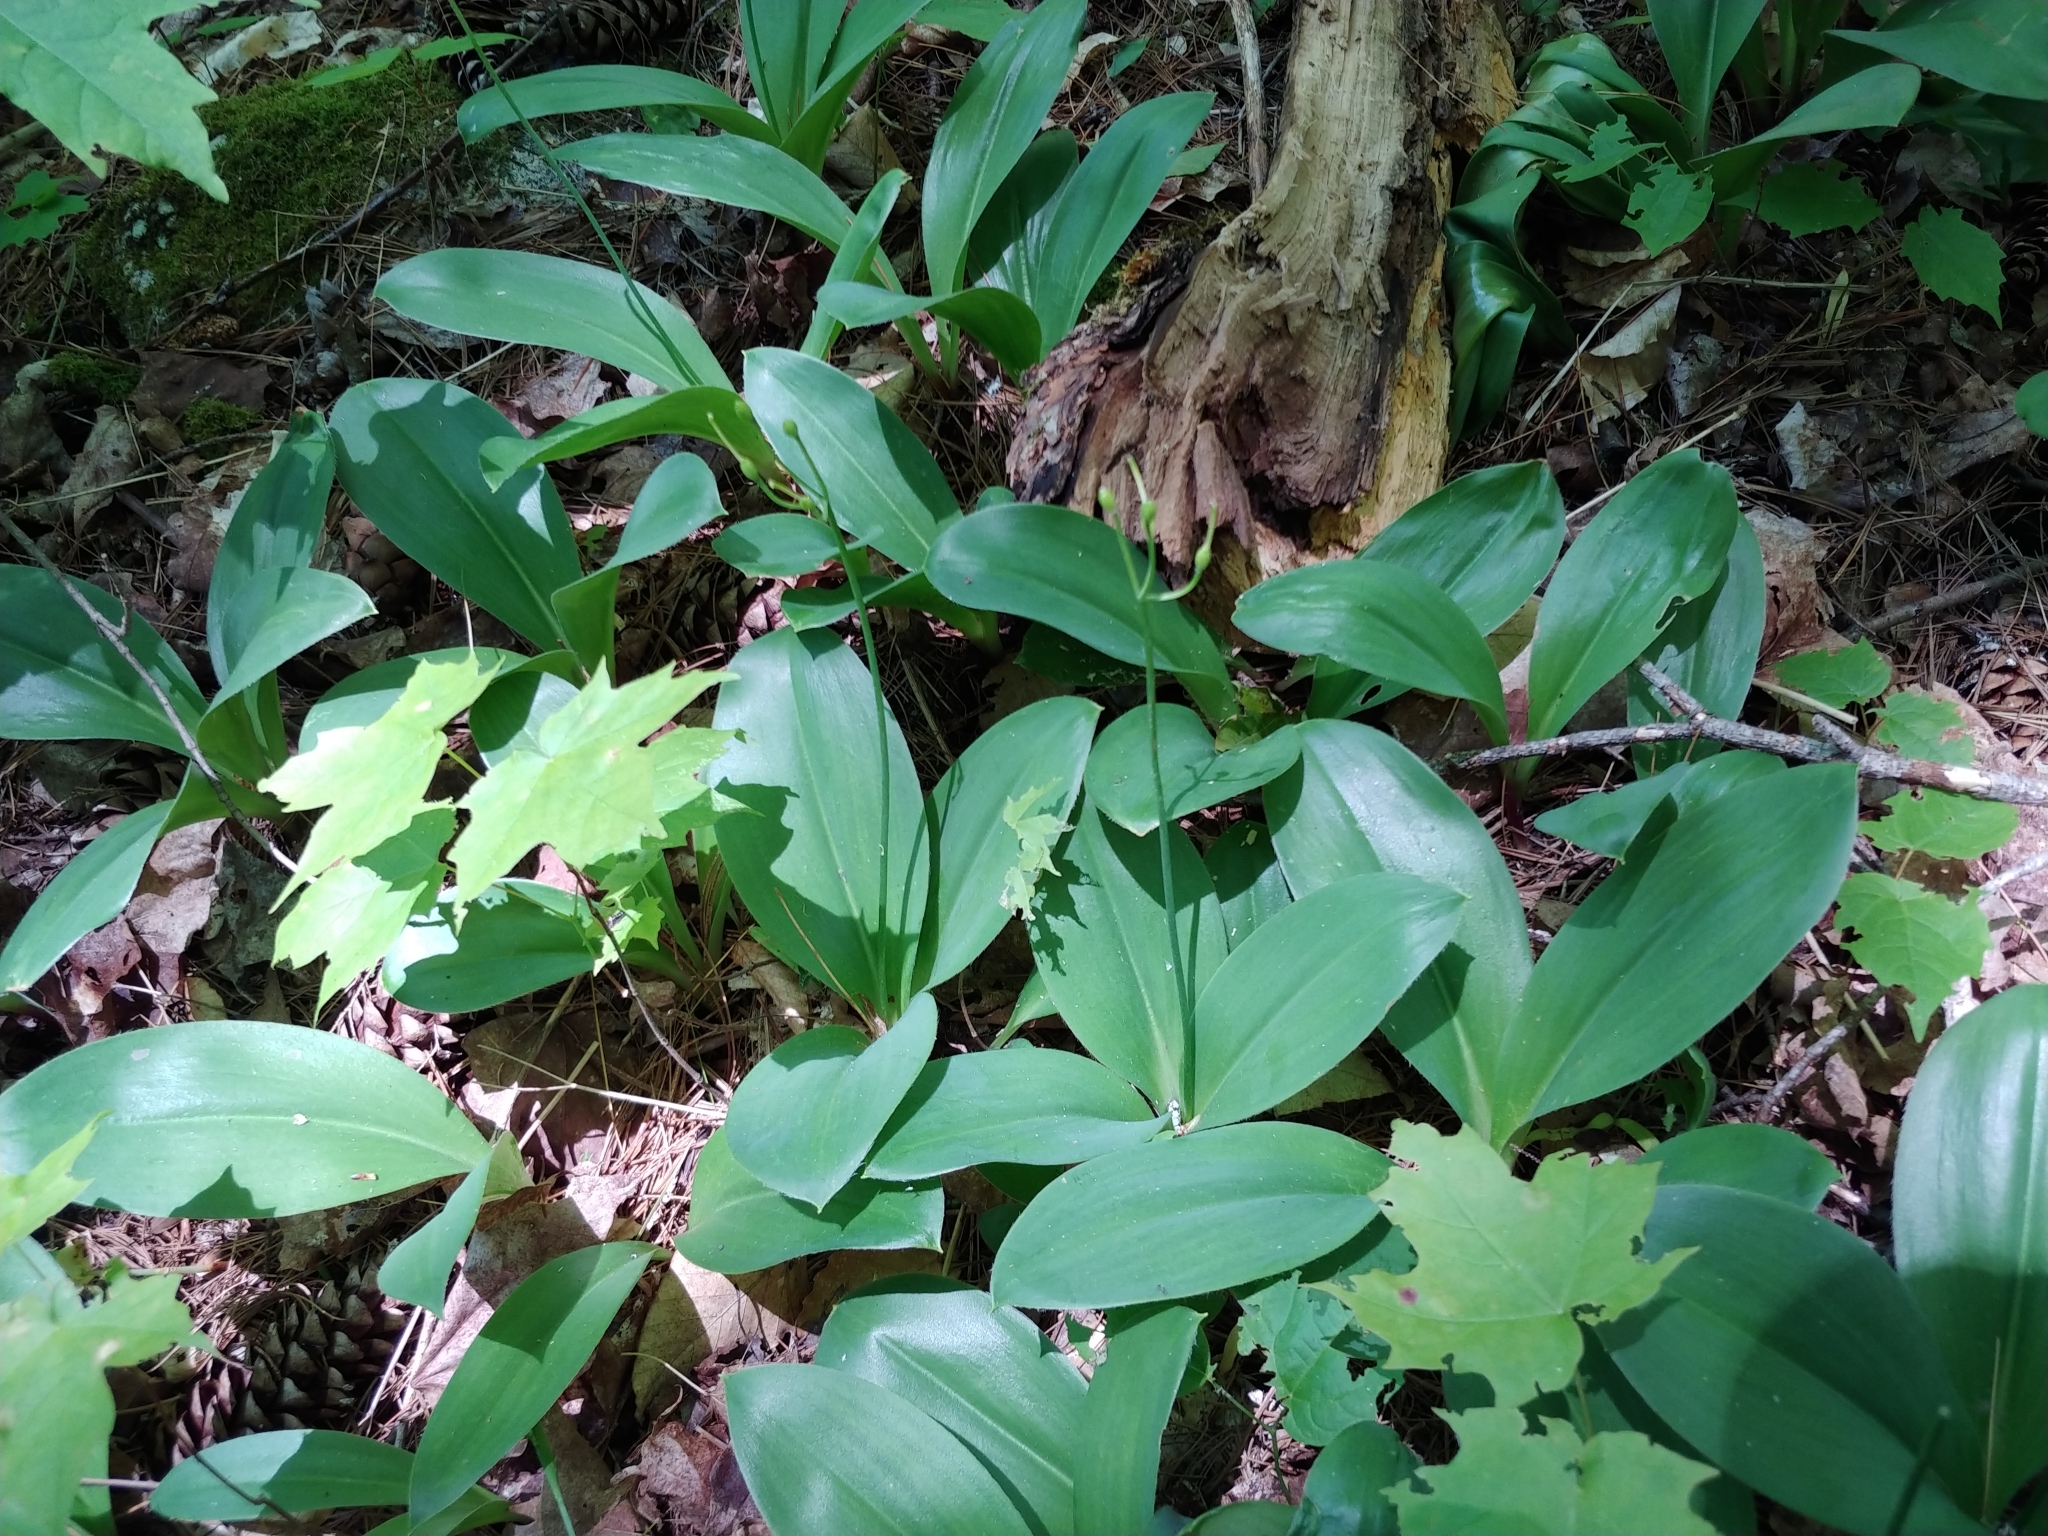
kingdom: Plantae
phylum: Tracheophyta
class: Liliopsida
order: Liliales
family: Liliaceae
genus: Clintonia
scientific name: Clintonia borealis
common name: Yellow clintonia
